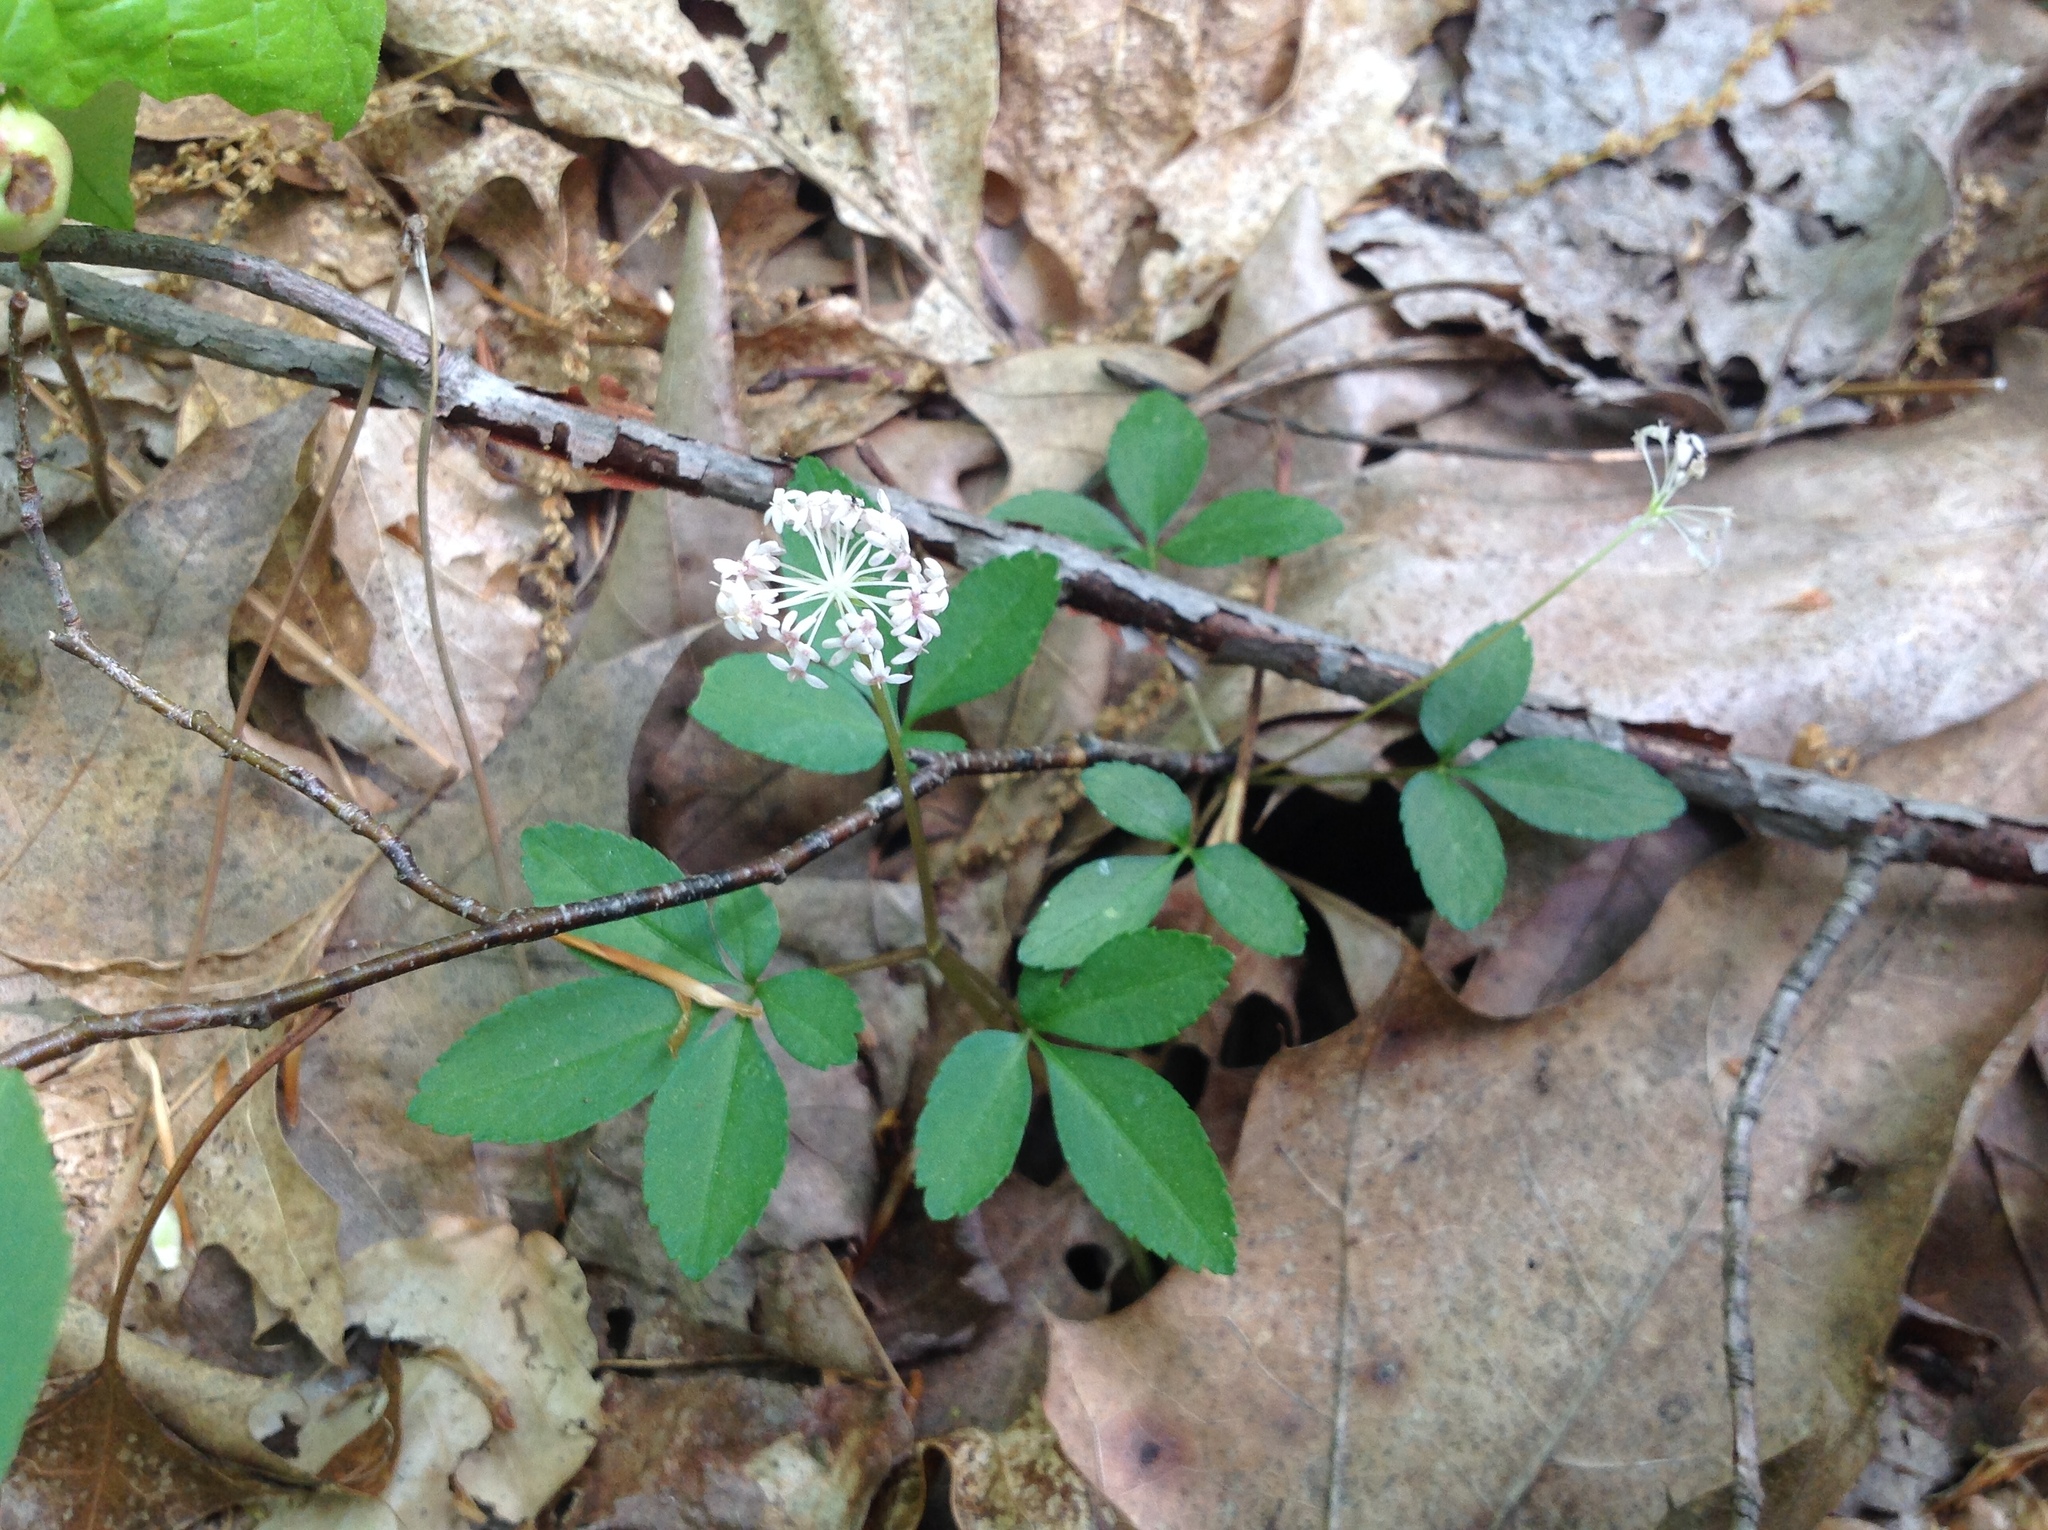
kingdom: Plantae
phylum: Tracheophyta
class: Magnoliopsida
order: Apiales
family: Araliaceae
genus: Panax
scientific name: Panax trifolius
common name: Dwarf ginseng
